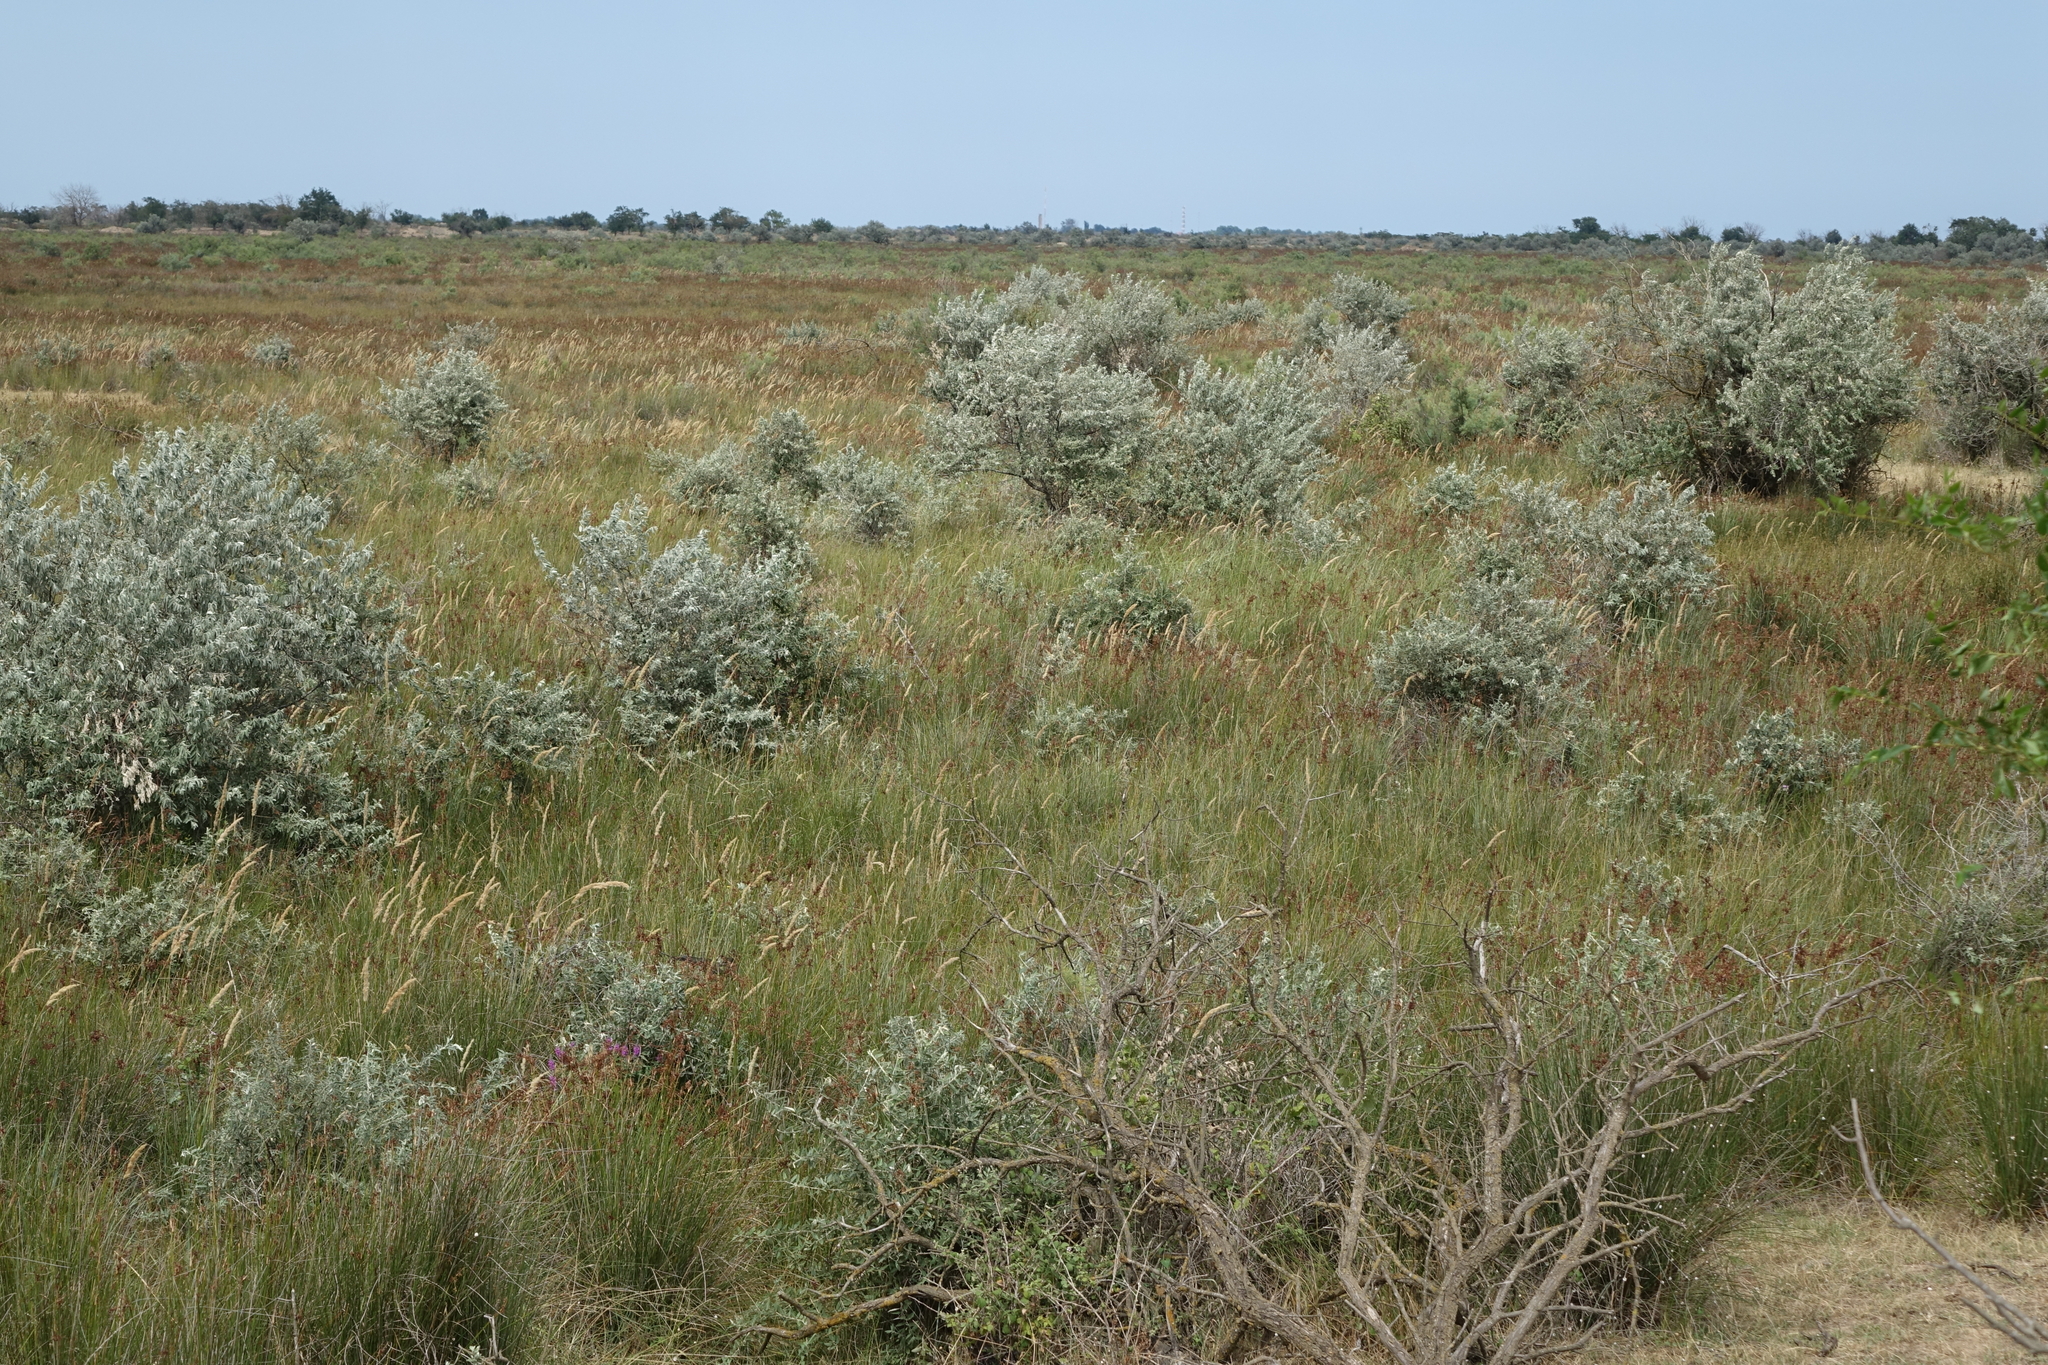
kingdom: Plantae
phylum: Tracheophyta
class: Magnoliopsida
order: Rosales
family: Elaeagnaceae
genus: Elaeagnus
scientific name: Elaeagnus angustifolia
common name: Russian olive
